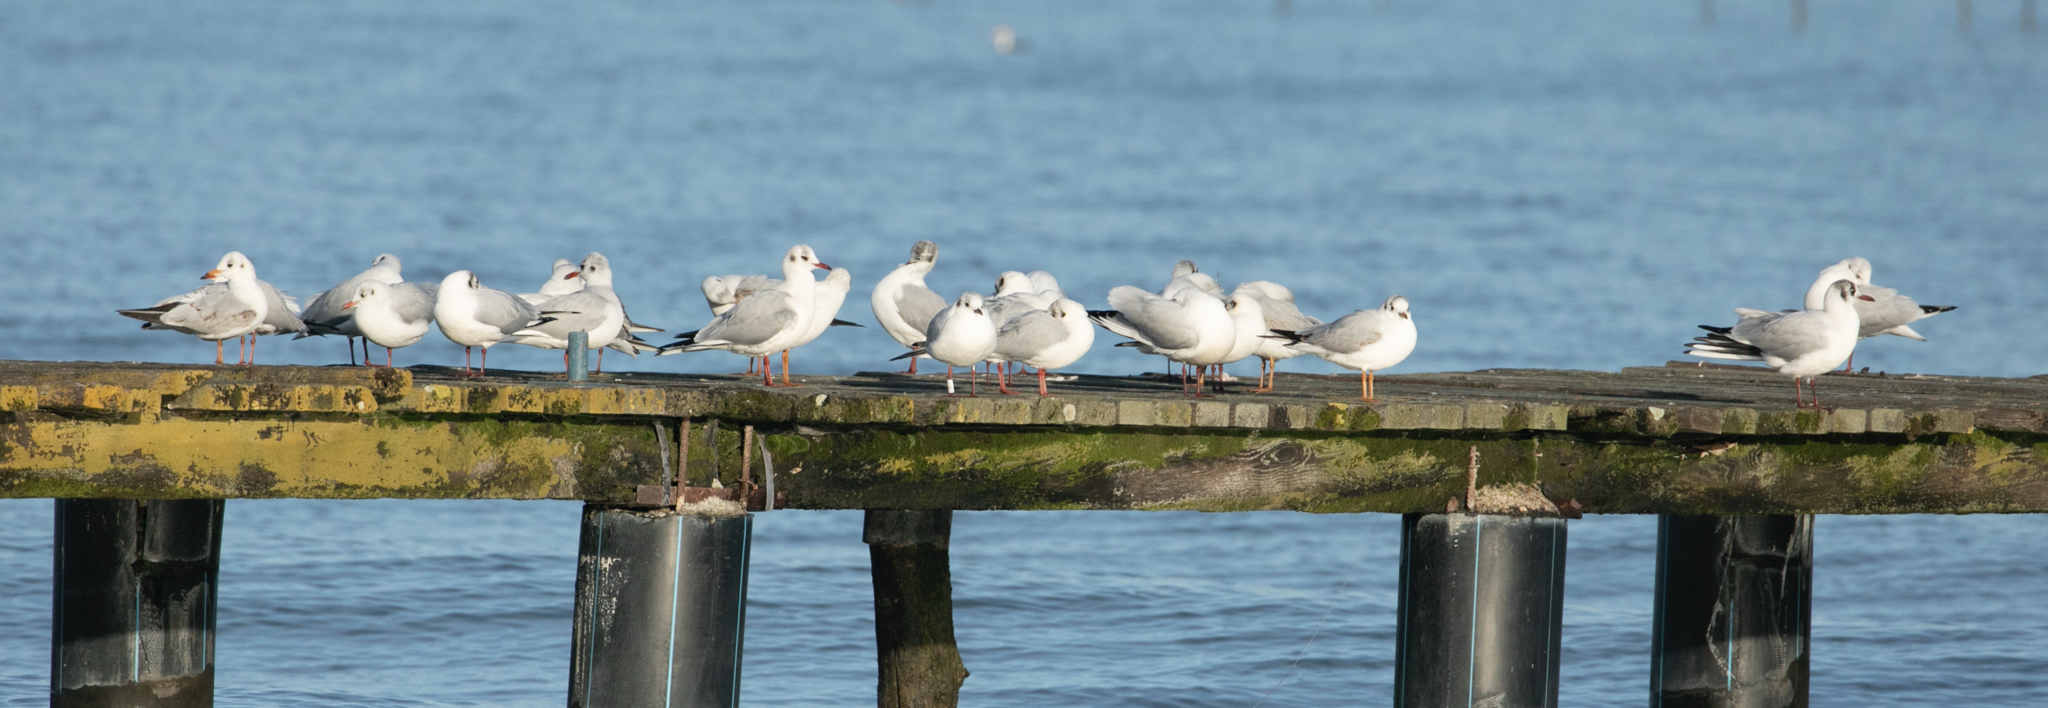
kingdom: Animalia
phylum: Chordata
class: Aves
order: Charadriiformes
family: Laridae
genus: Chroicocephalus
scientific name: Chroicocephalus ridibundus
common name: Black-headed gull
